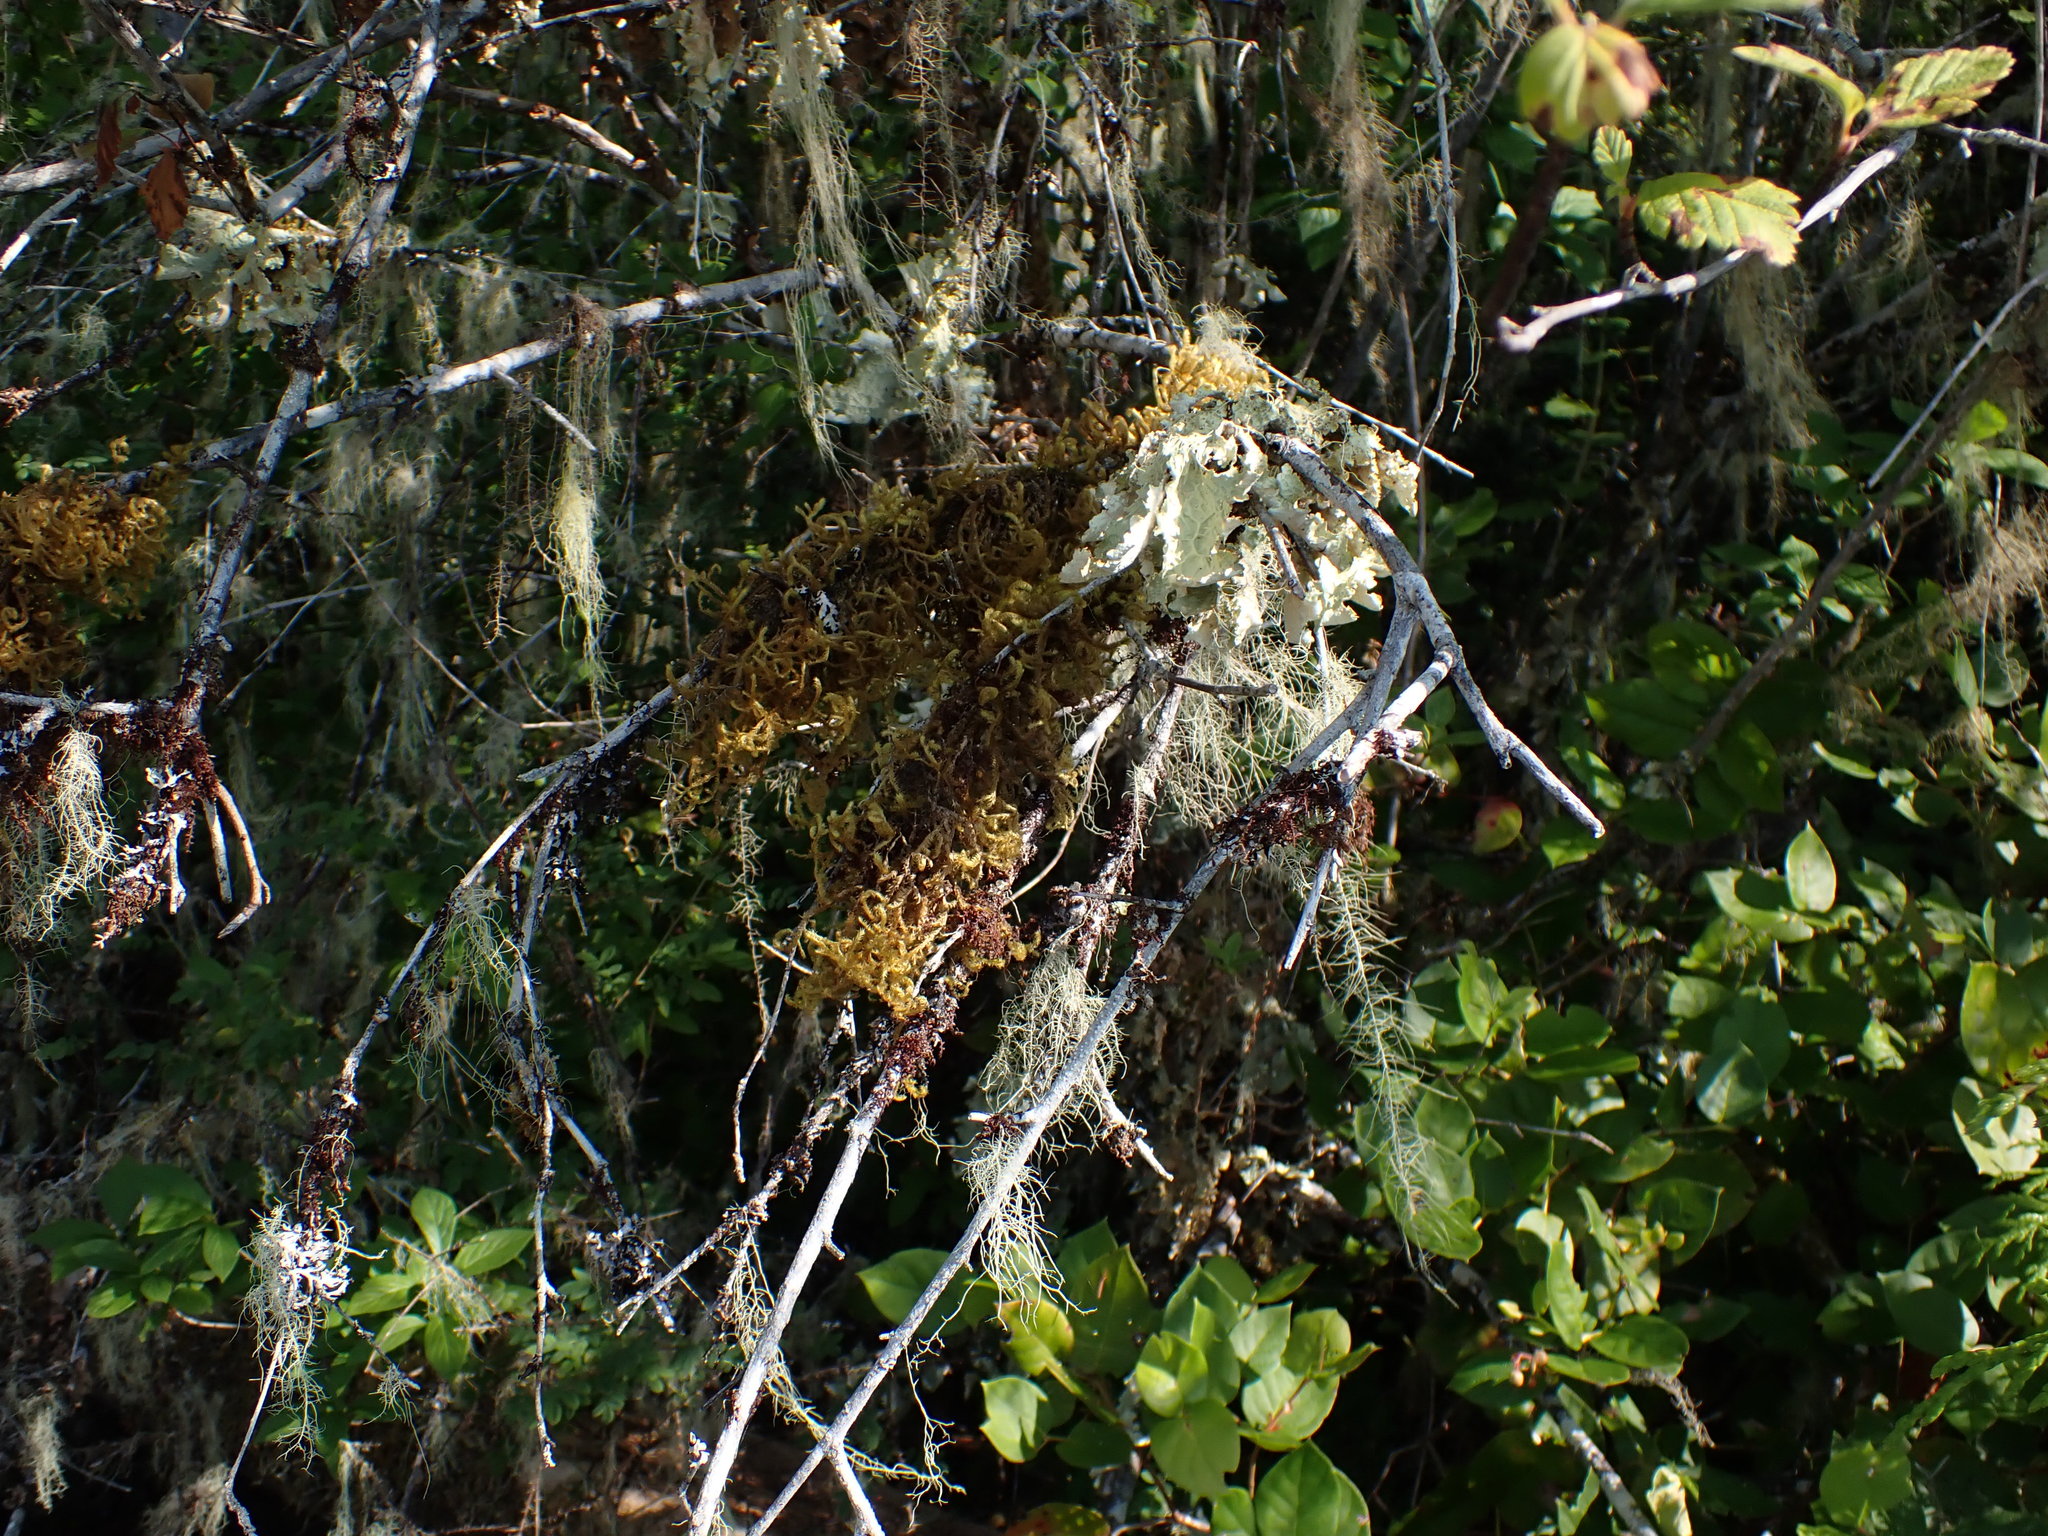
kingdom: Plantae
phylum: Bryophyta
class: Bryopsida
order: Hypnales
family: Antitrichiaceae
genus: Antitrichia
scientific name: Antitrichia curtipendula
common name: Pendulous wing-moss
